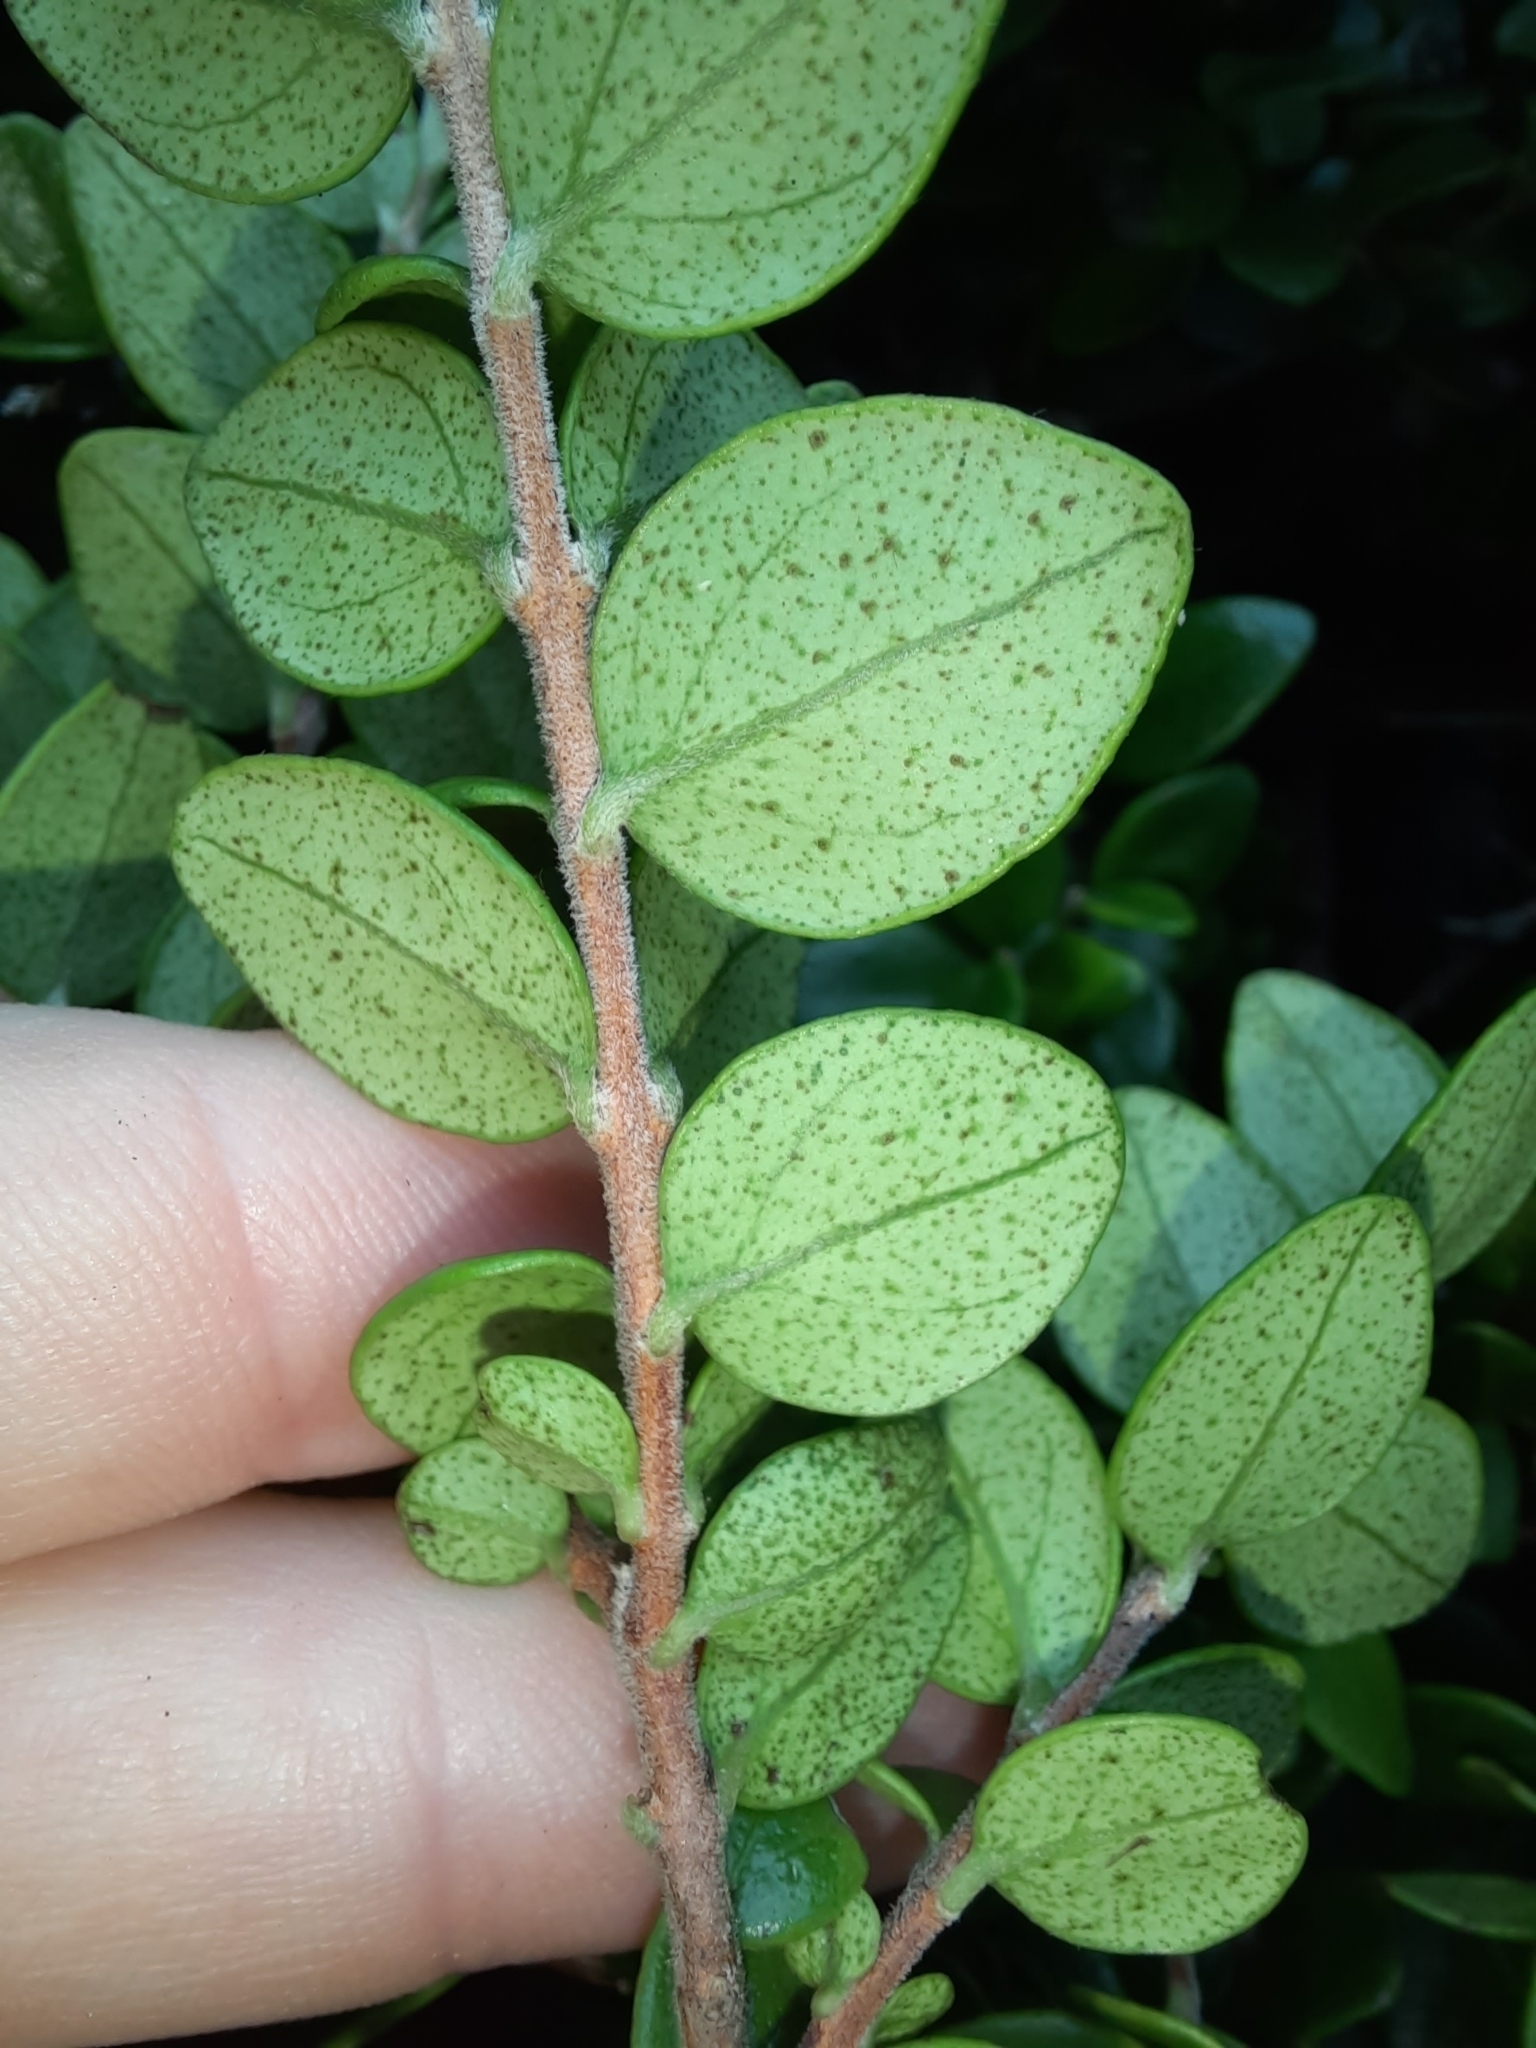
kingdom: Plantae
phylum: Tracheophyta
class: Magnoliopsida
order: Myrtales
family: Myrtaceae
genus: Metrosideros
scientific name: Metrosideros perforata
